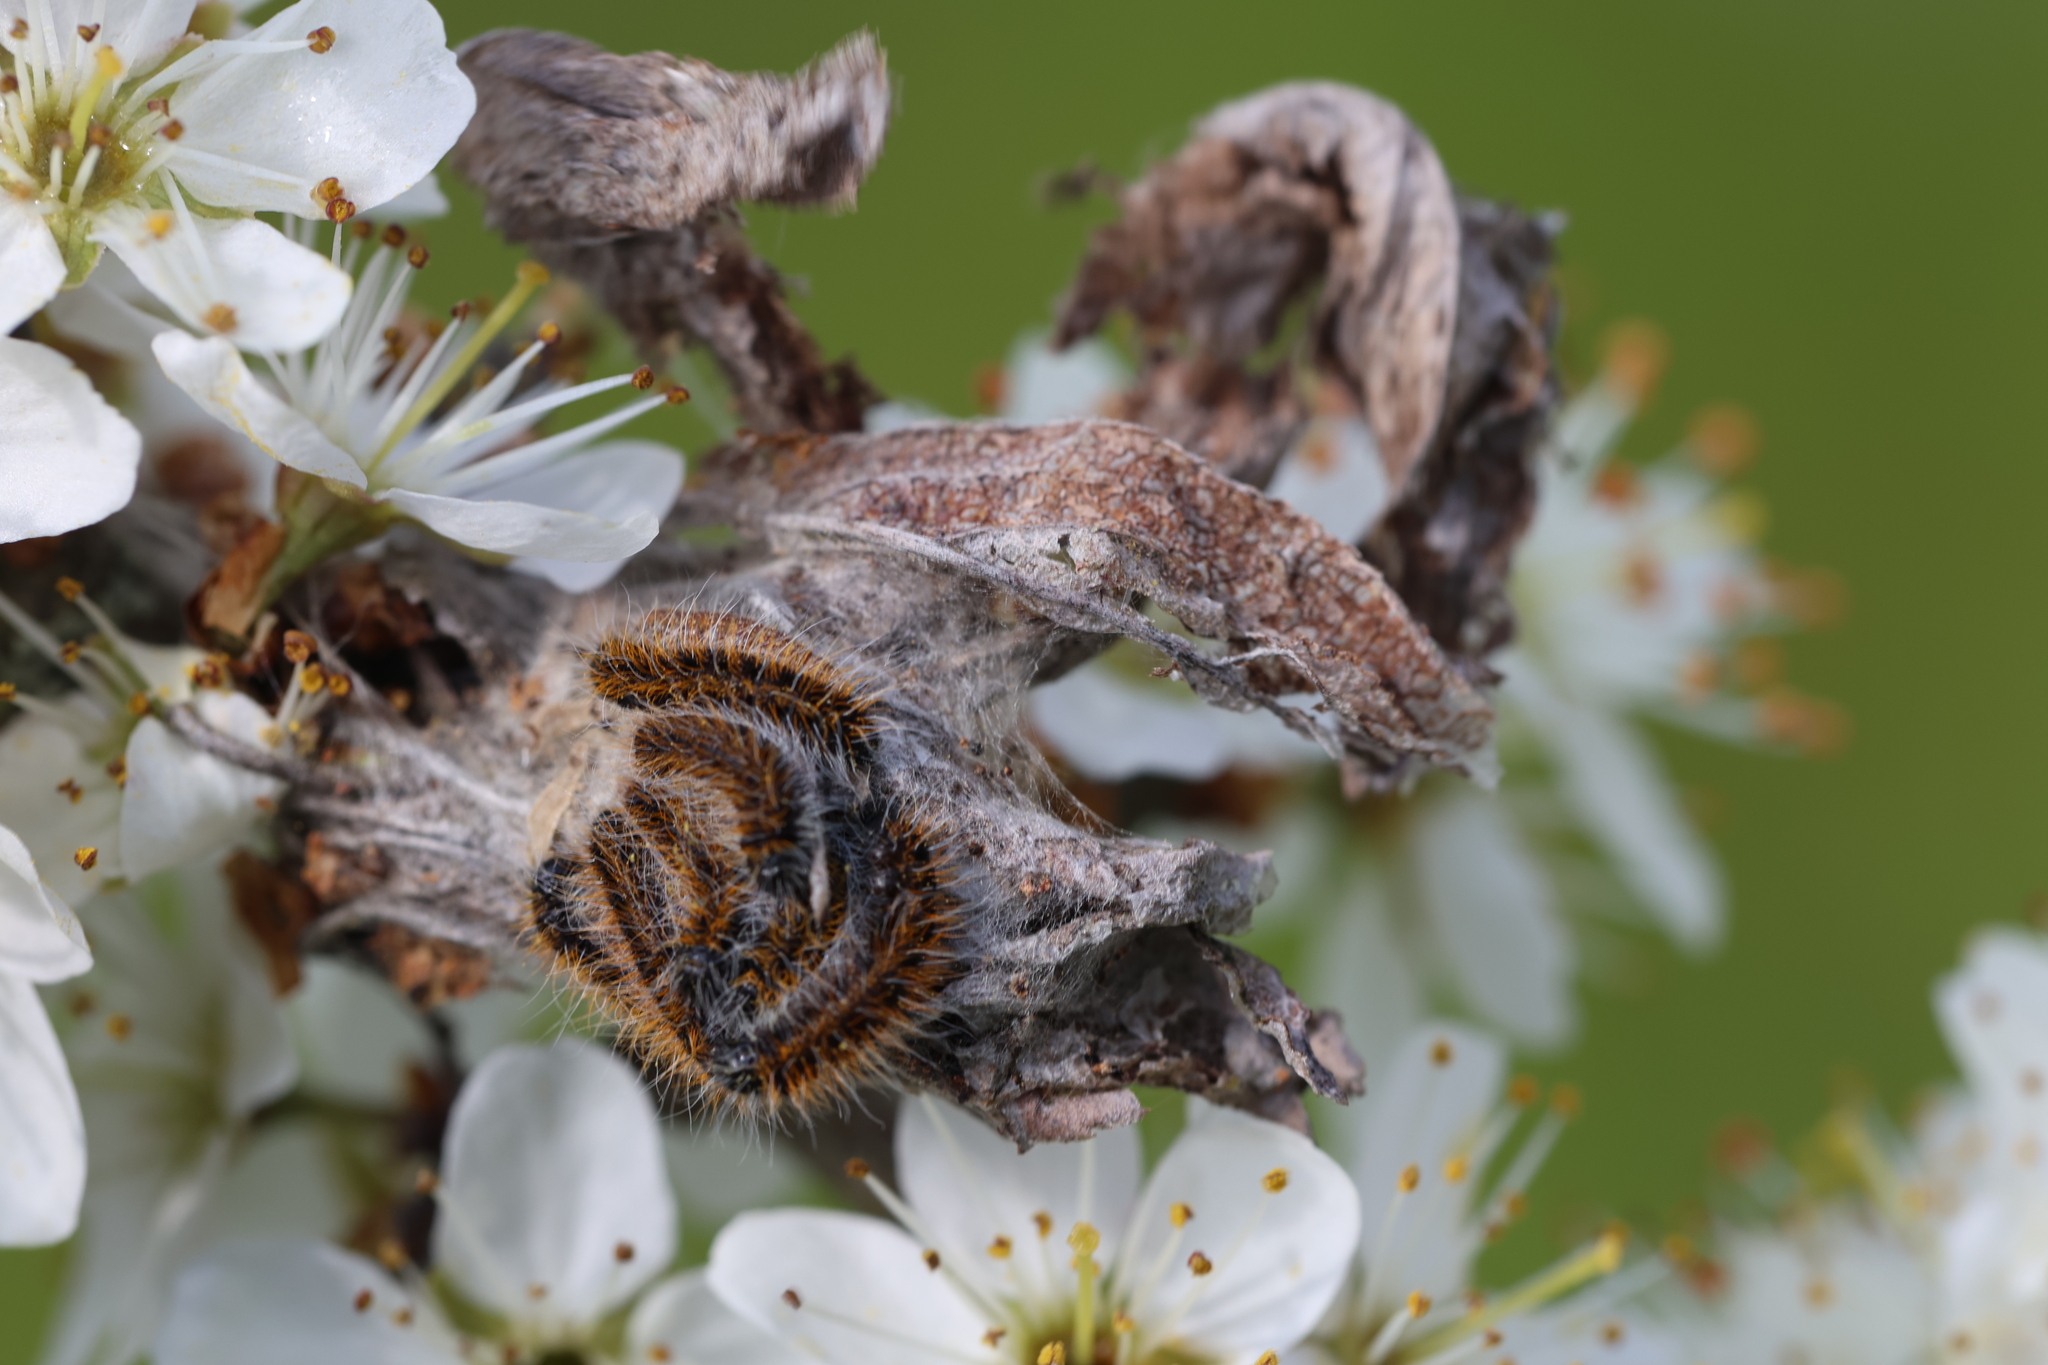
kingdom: Animalia
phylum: Arthropoda
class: Insecta
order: Lepidoptera
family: Pieridae
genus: Aporia
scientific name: Aporia crataegi
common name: Black-veined white
